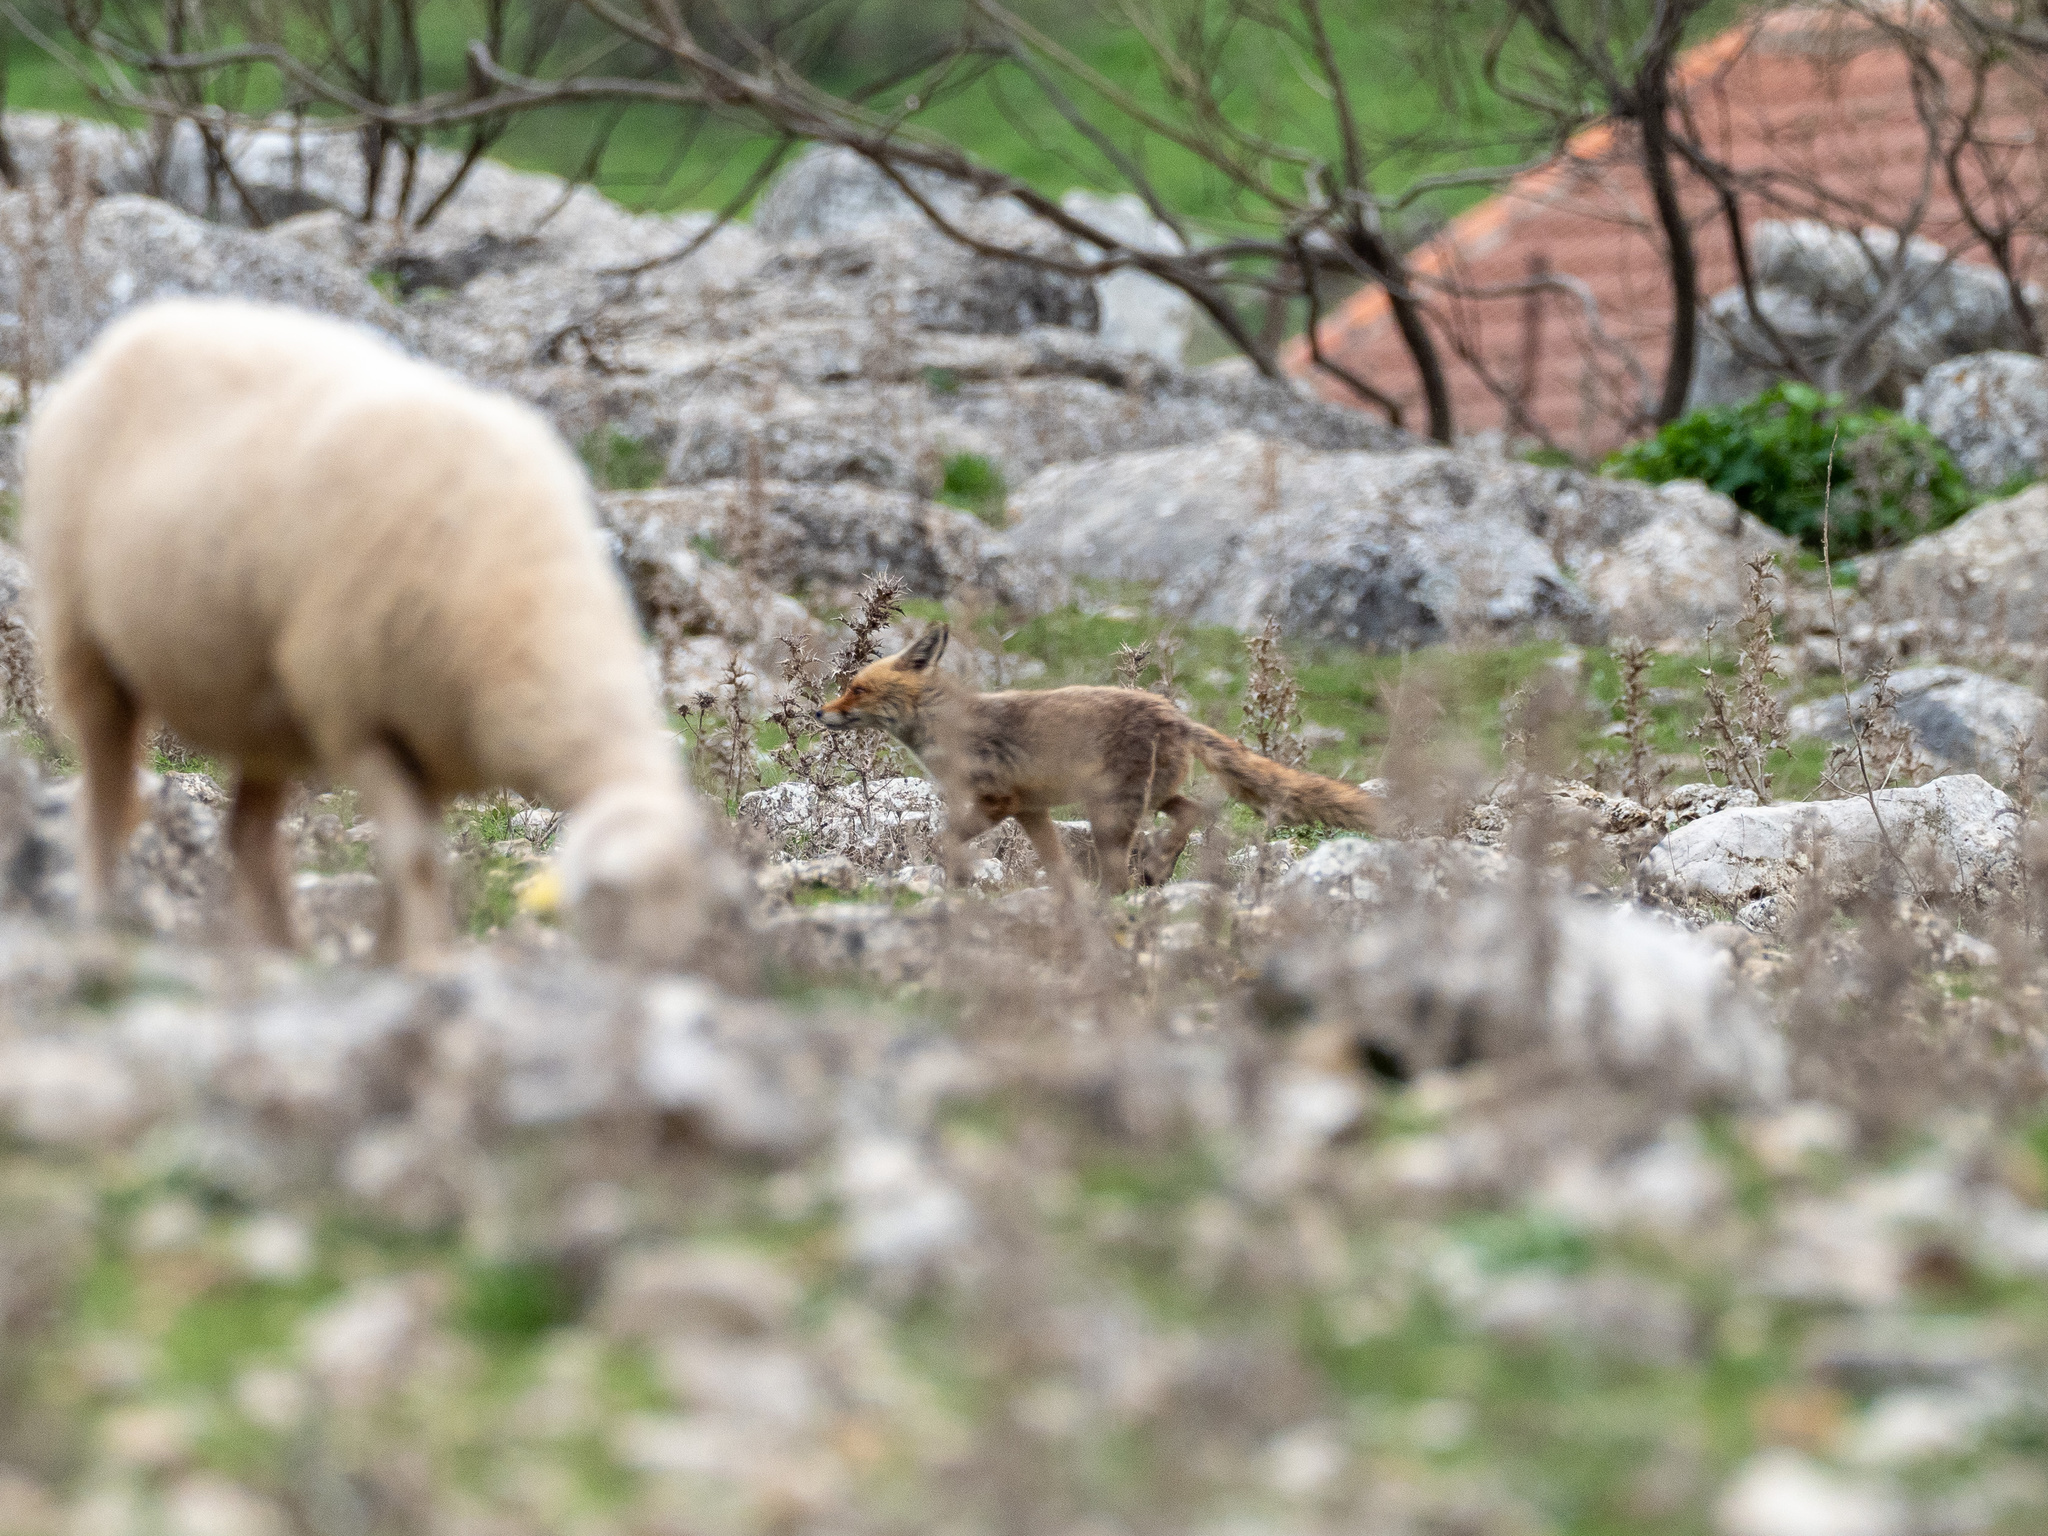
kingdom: Animalia
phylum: Chordata
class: Mammalia
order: Carnivora
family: Canidae
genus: Vulpes
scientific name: Vulpes vulpes
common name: Red fox
